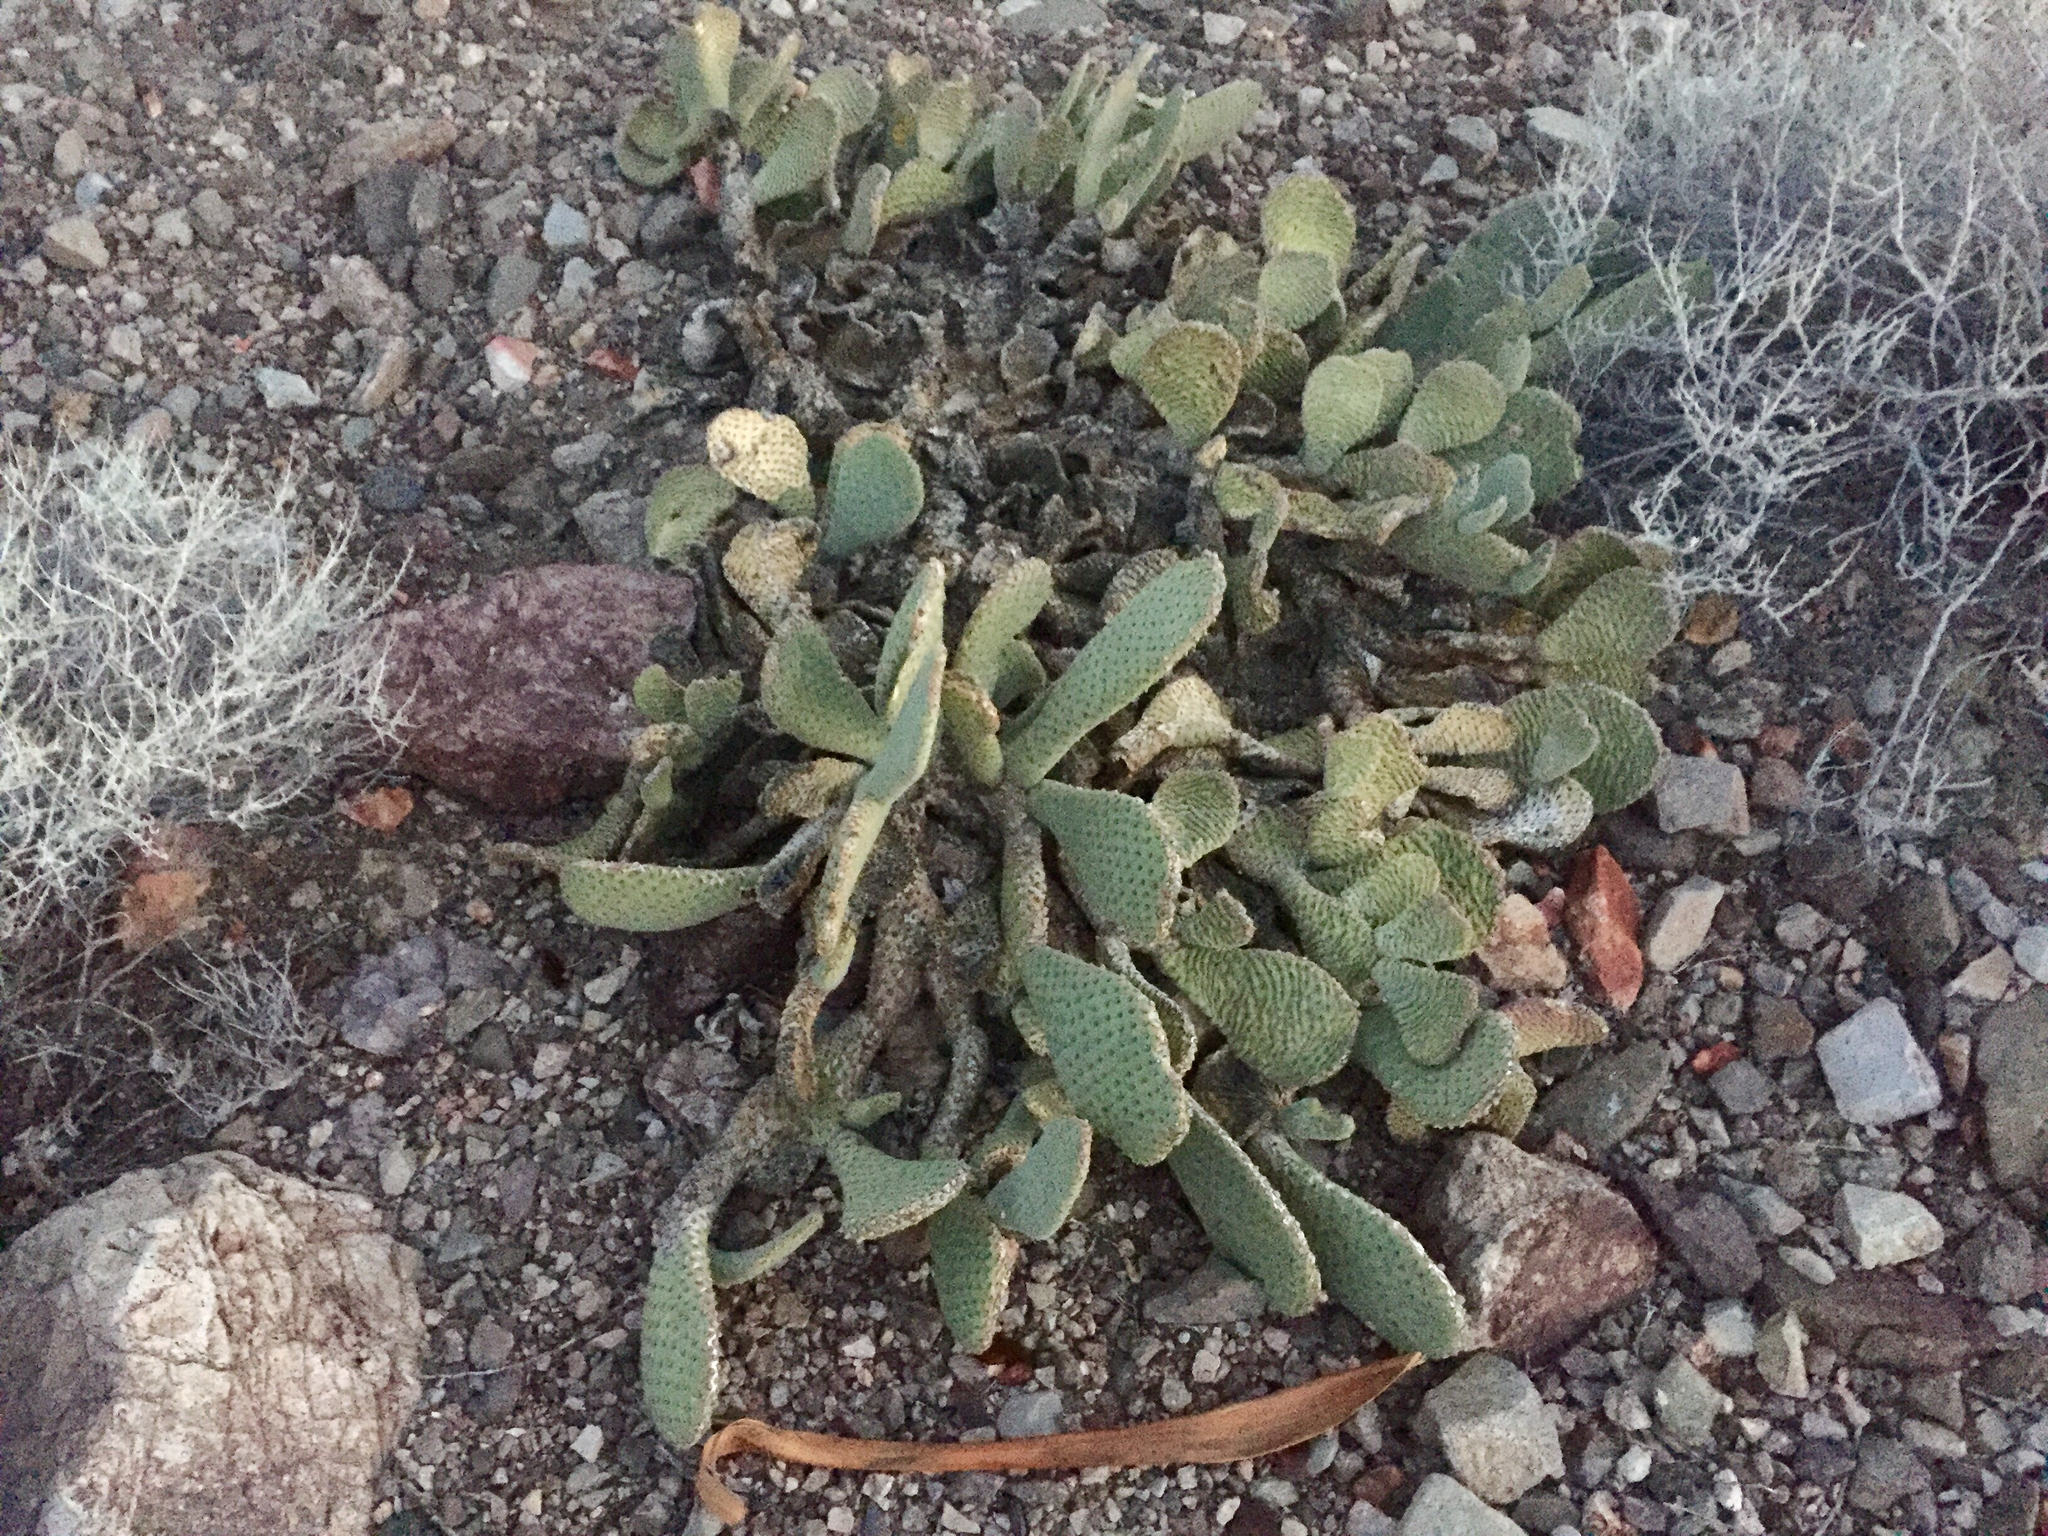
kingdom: Plantae
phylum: Tracheophyta
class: Magnoliopsida
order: Caryophyllales
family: Cactaceae
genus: Opuntia
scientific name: Opuntia basilaris
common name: Beavertail prickly-pear
